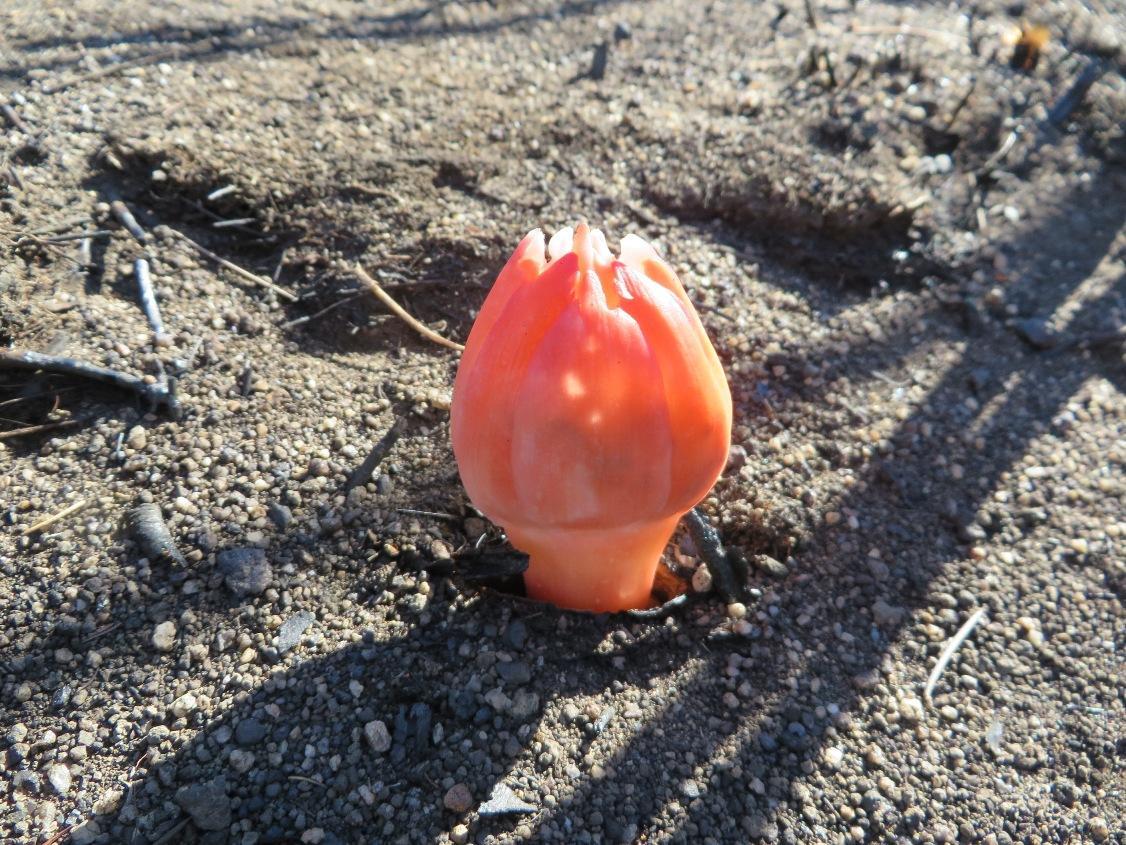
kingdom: Plantae
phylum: Tracheophyta
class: Liliopsida
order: Asparagales
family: Amaryllidaceae
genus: Haemanthus
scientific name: Haemanthus sanguineus
